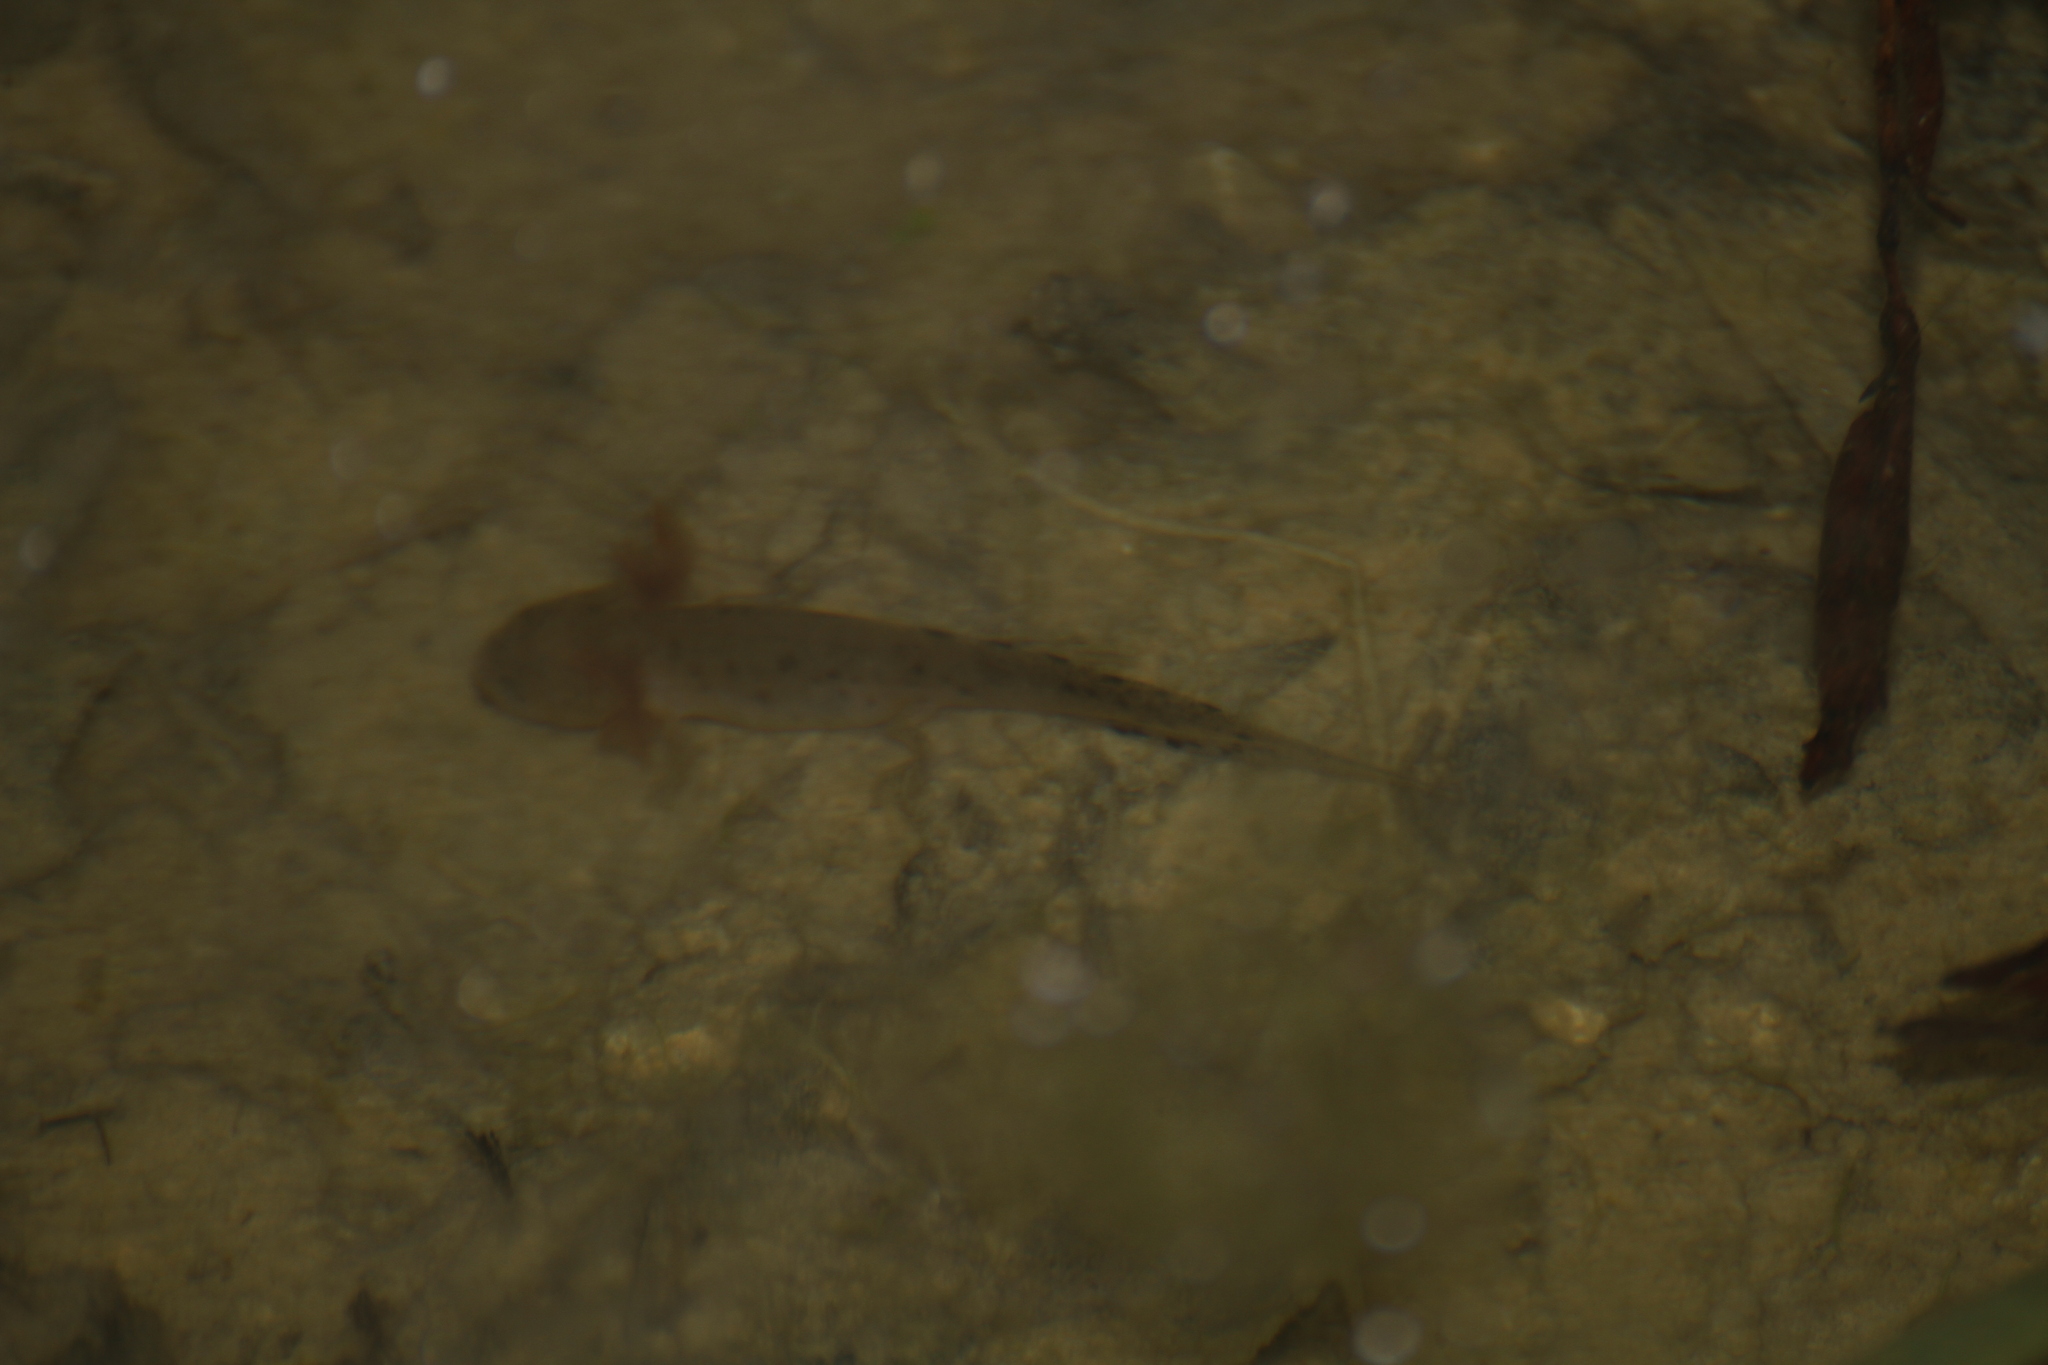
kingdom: Animalia
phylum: Chordata
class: Amphibia
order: Caudata
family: Salamandridae
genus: Triturus
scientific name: Triturus cristatus
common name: Crested newt
